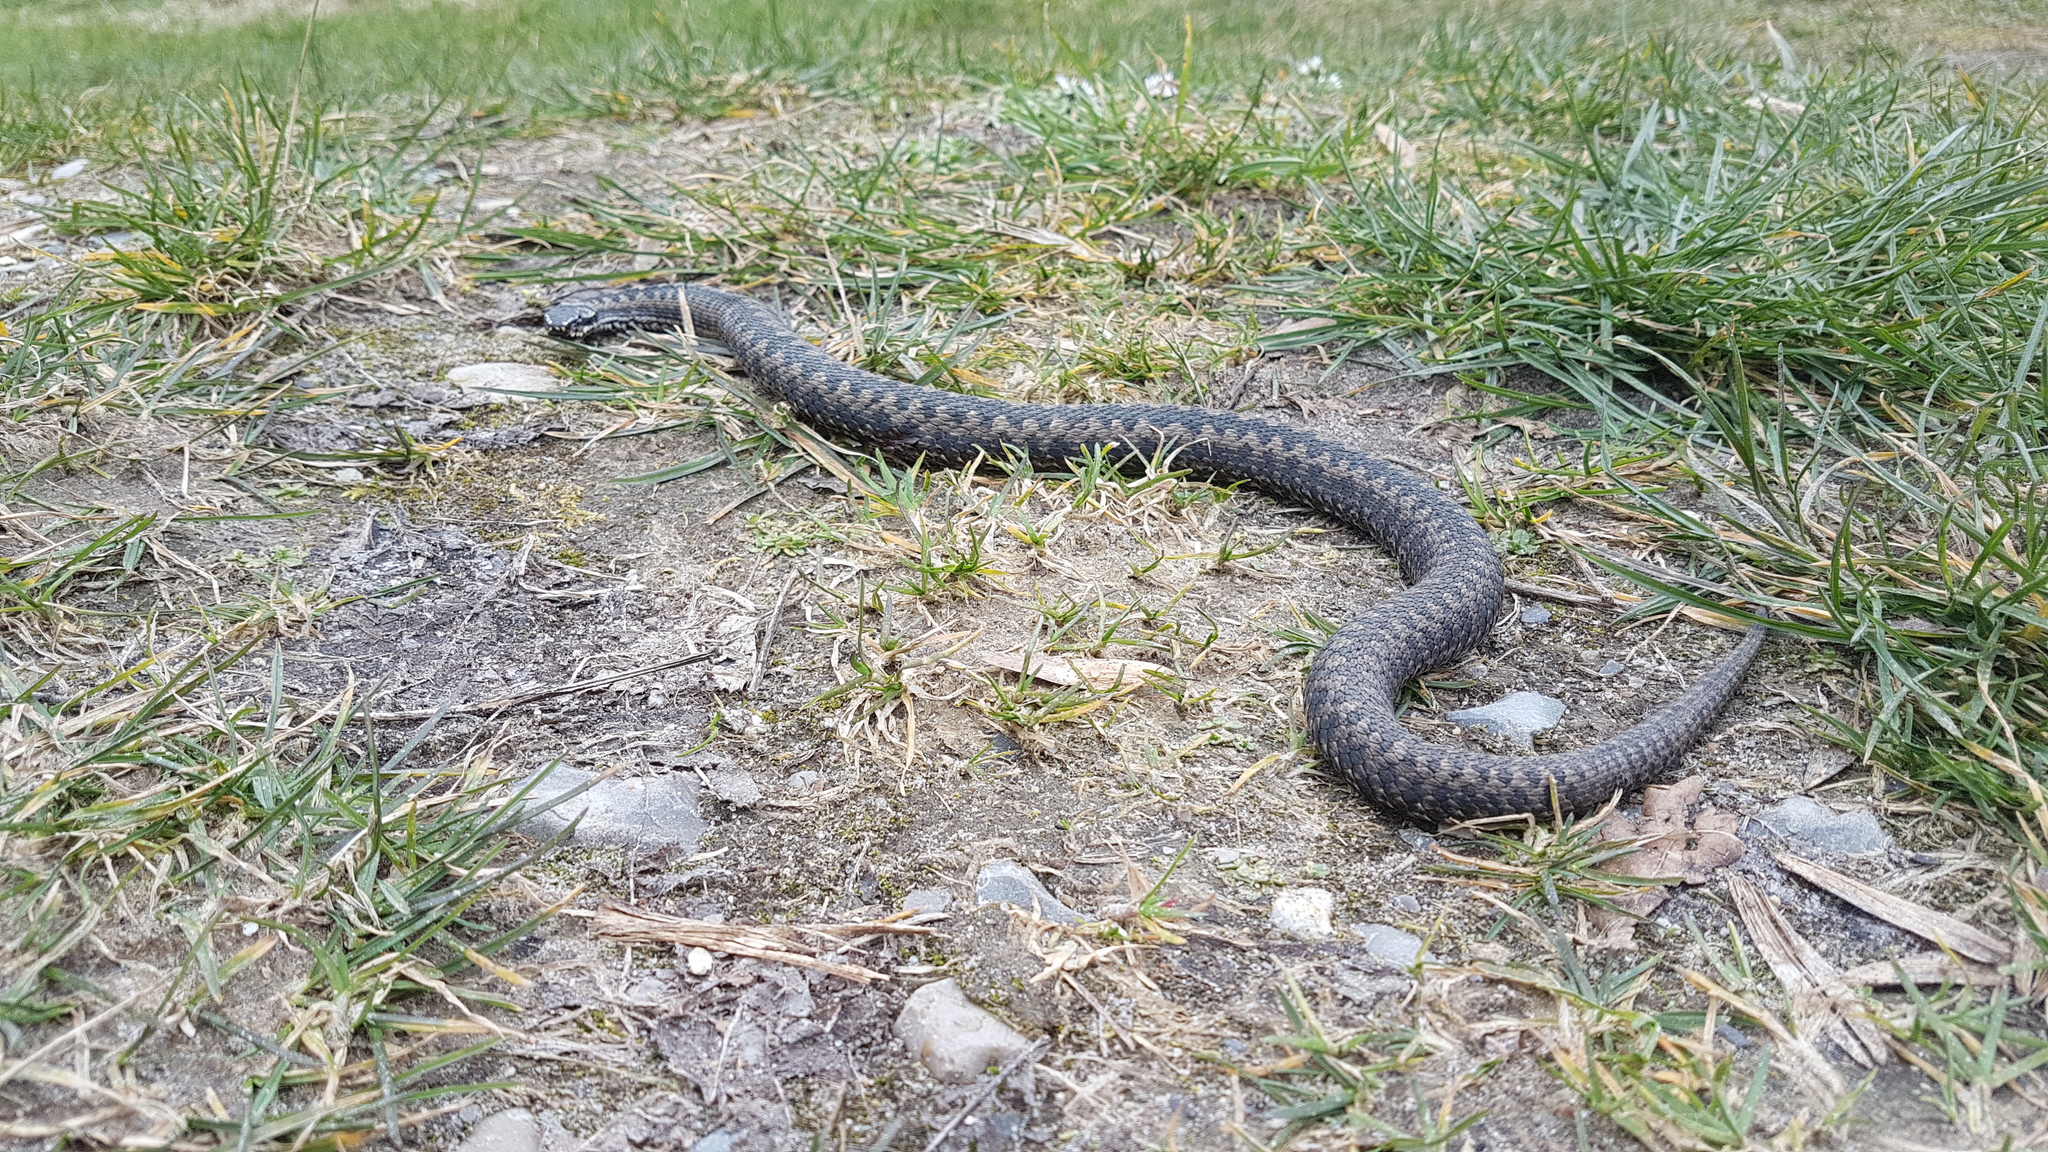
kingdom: Animalia
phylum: Chordata
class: Squamata
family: Viperidae
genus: Vipera
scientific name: Vipera berus
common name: Adder
